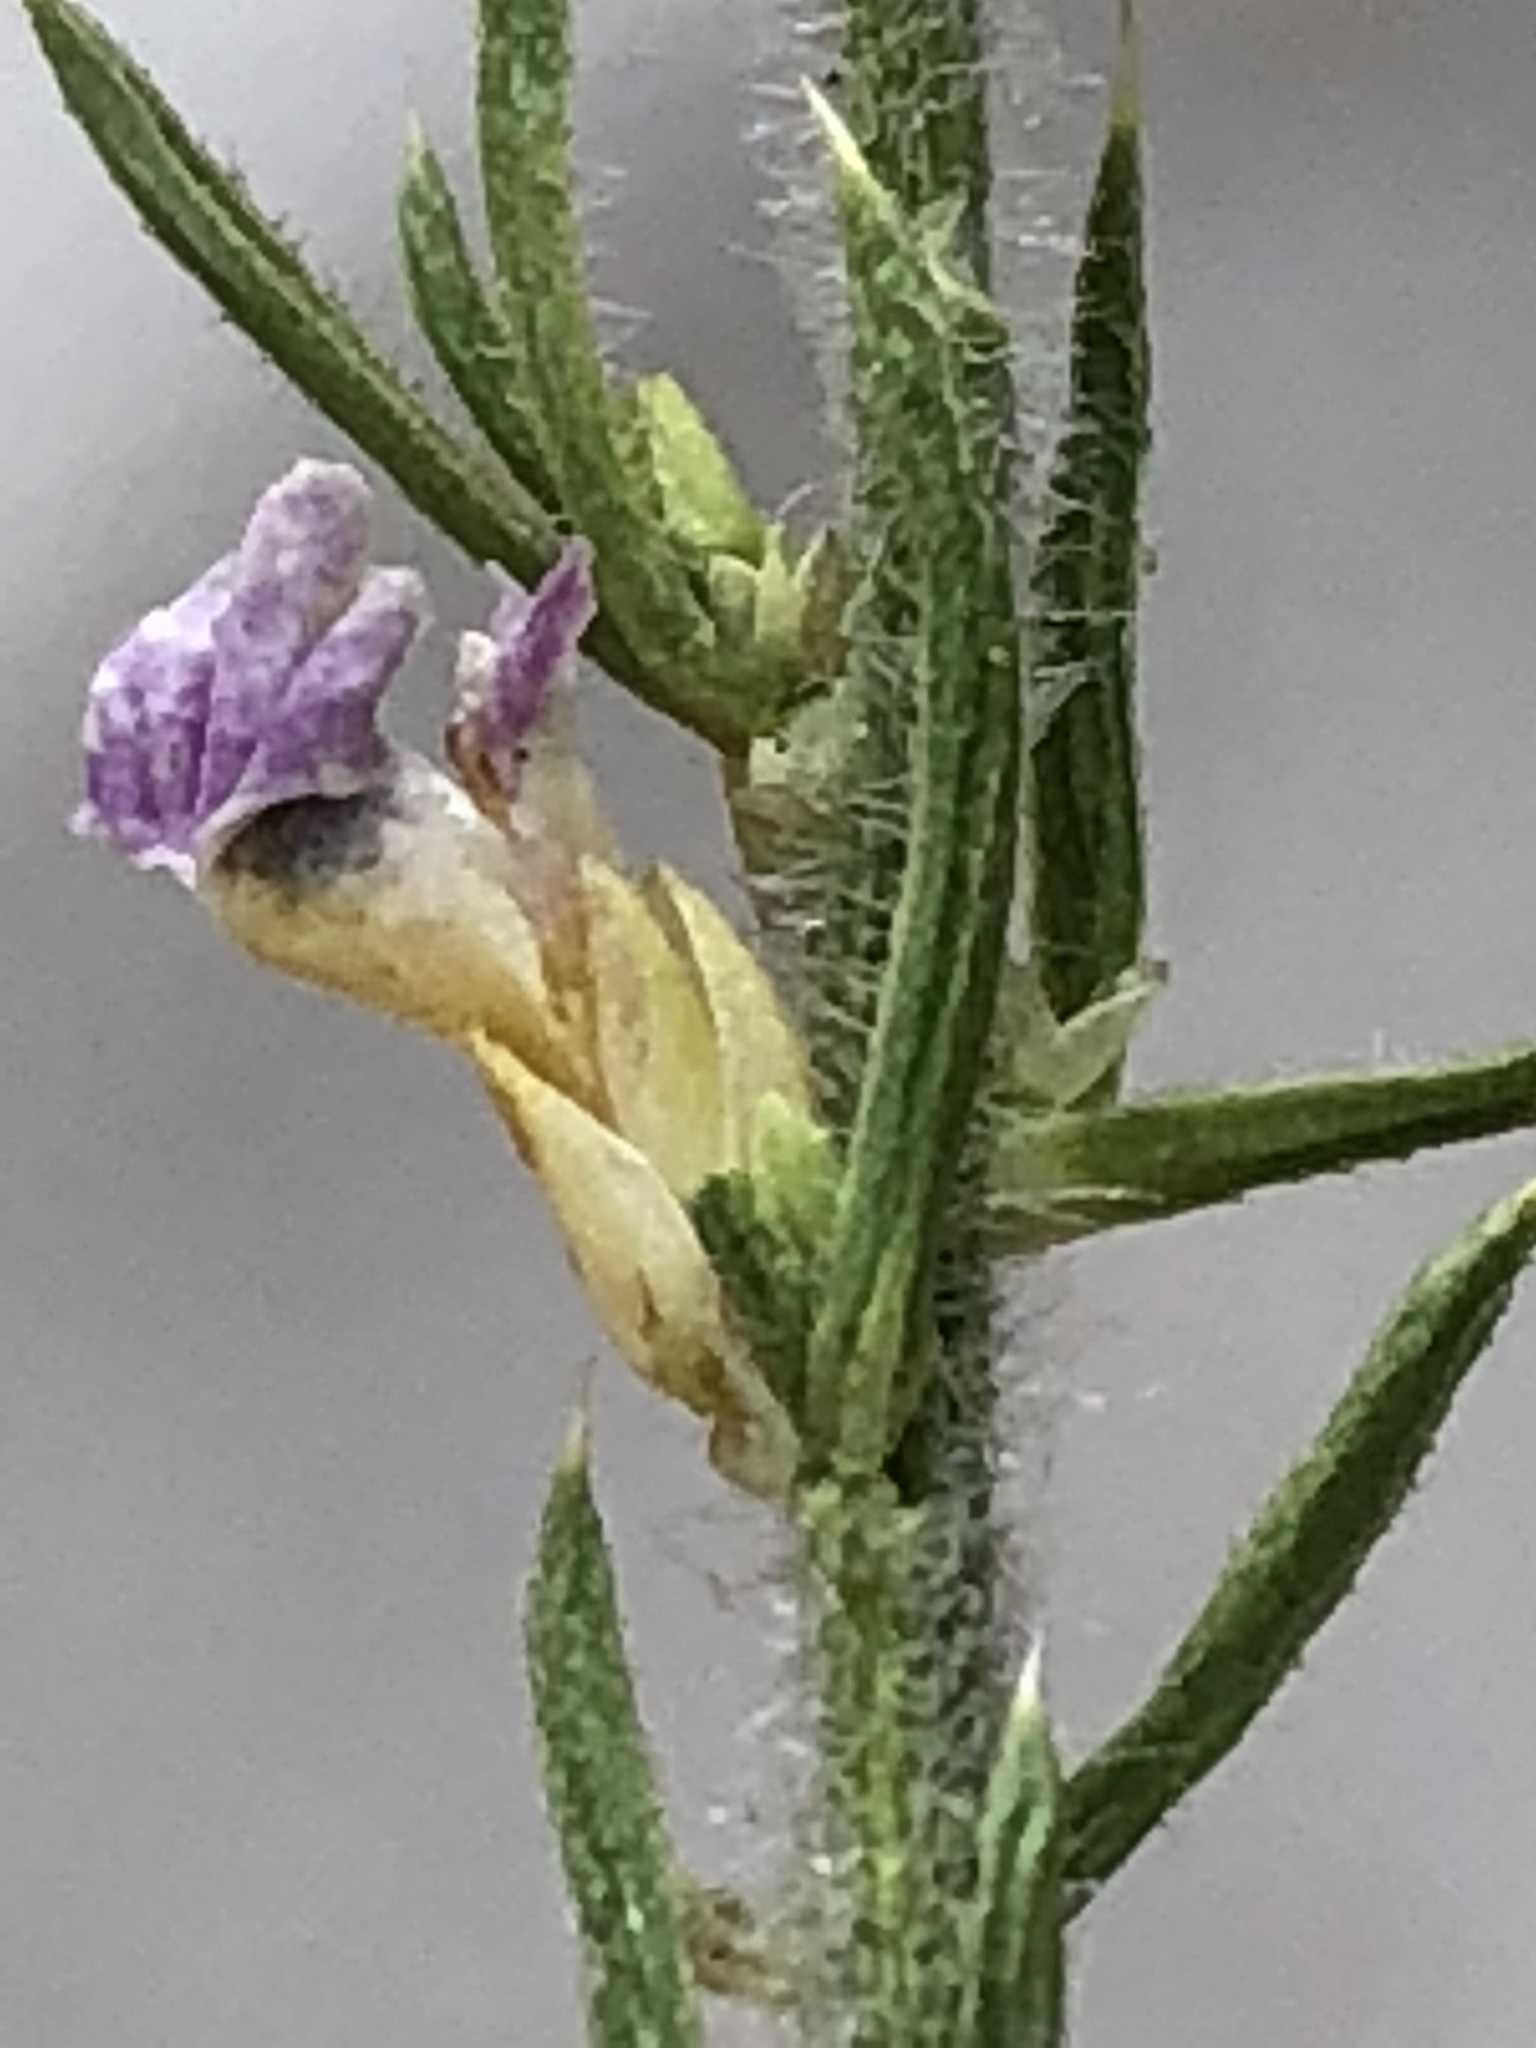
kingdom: Plantae
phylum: Tracheophyta
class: Magnoliopsida
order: Fabales
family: Polygalaceae
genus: Muraltia
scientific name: Muraltia gillettiae
